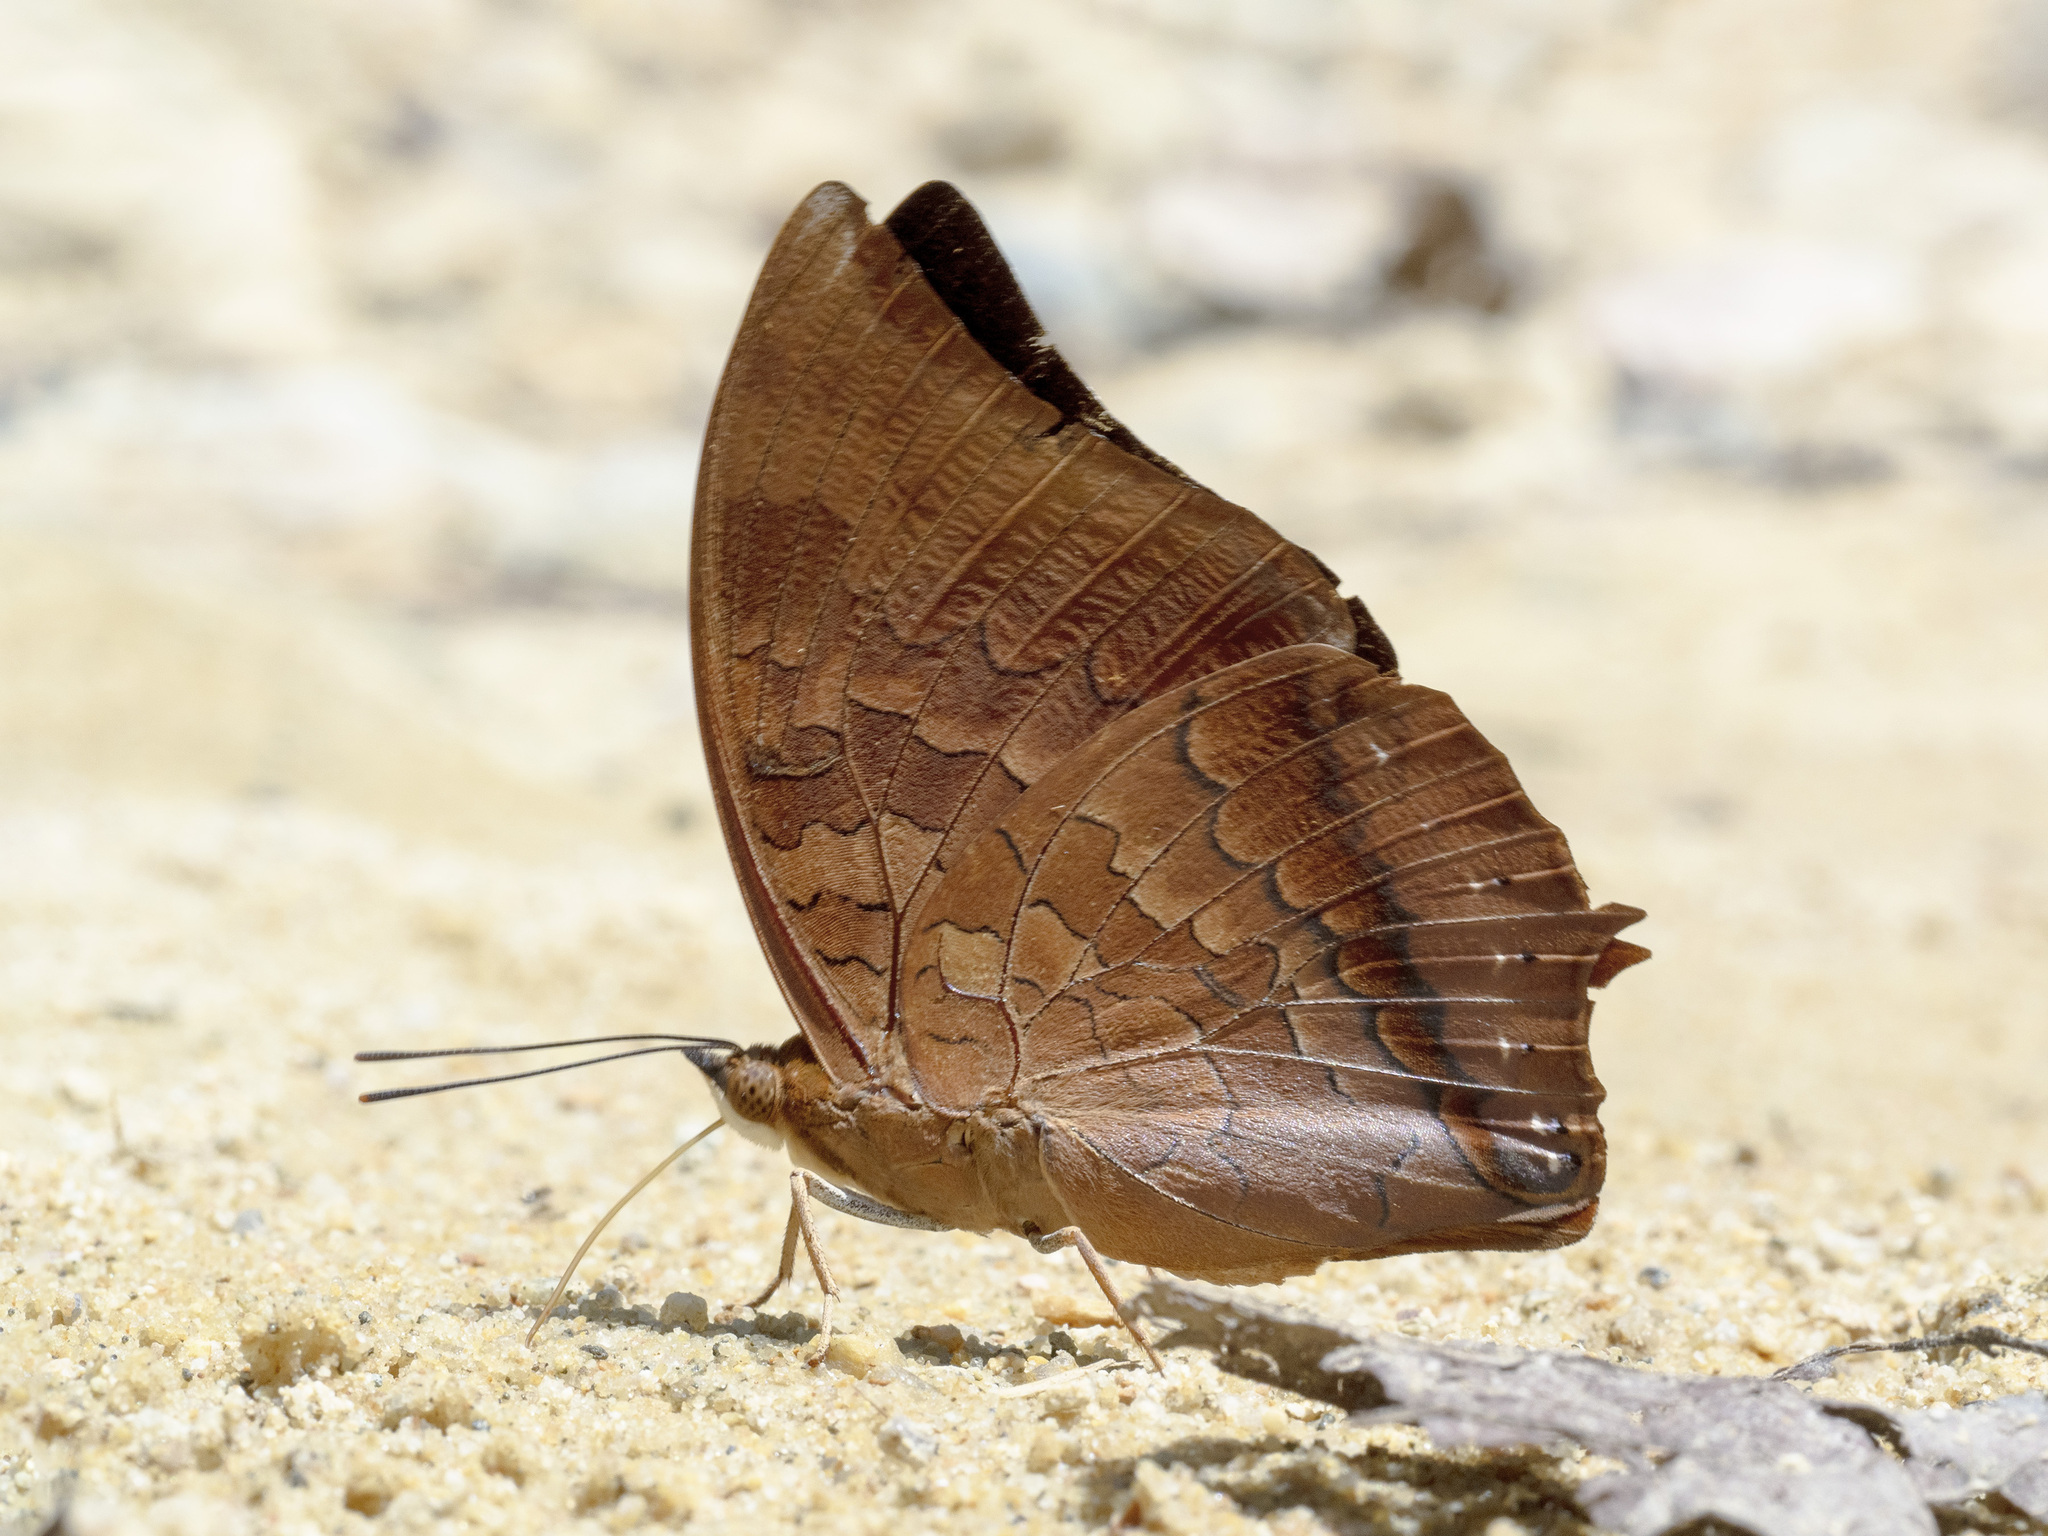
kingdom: Animalia
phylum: Arthropoda
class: Insecta
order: Lepidoptera
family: Nymphalidae
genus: Charaxes
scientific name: Charaxes bernardus
